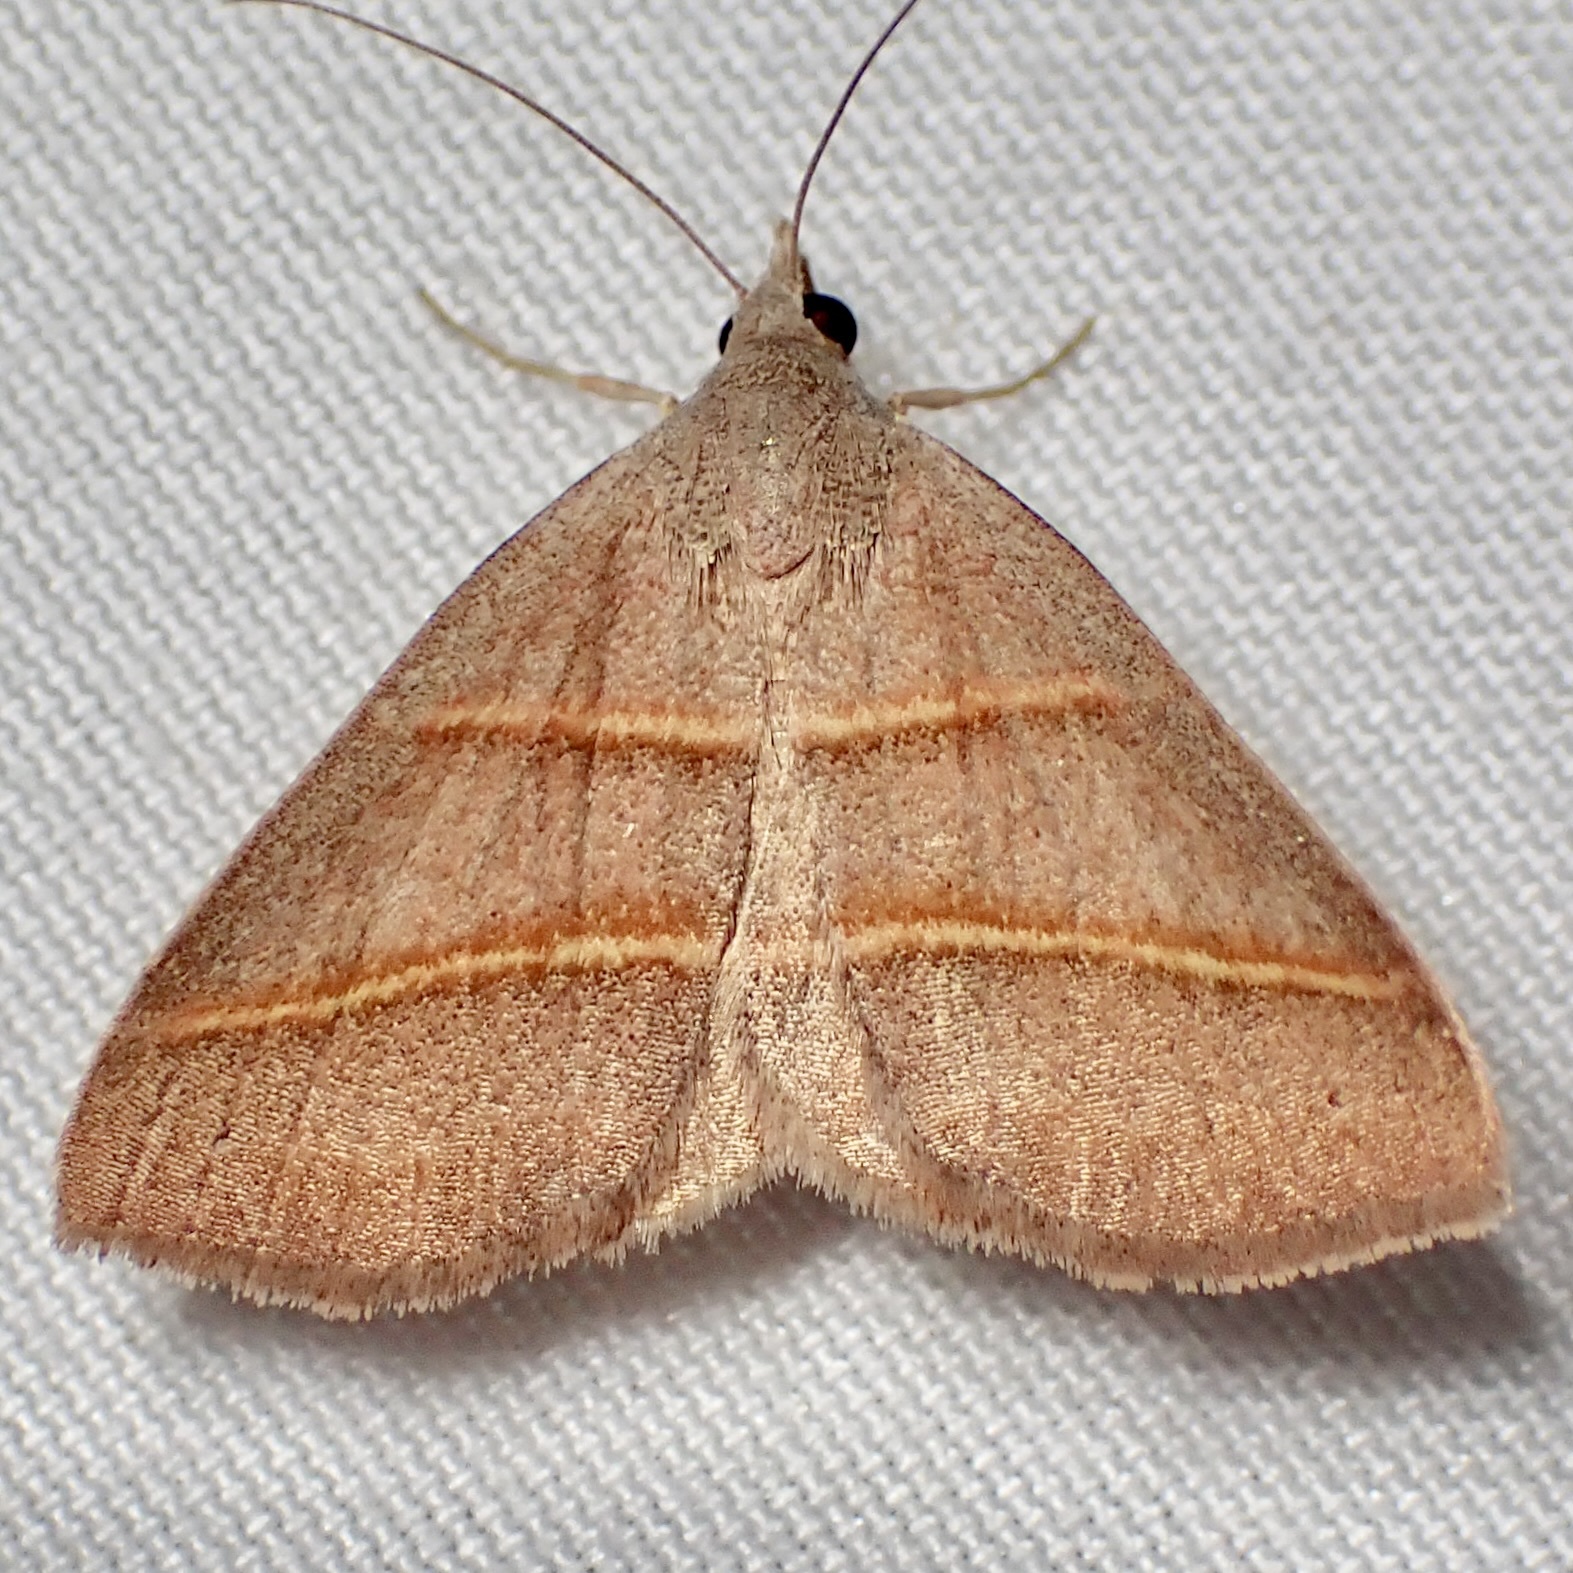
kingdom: Animalia
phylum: Arthropoda
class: Insecta
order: Lepidoptera
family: Erebidae
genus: Hemeroplanis
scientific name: Hemeroplanis parallela
